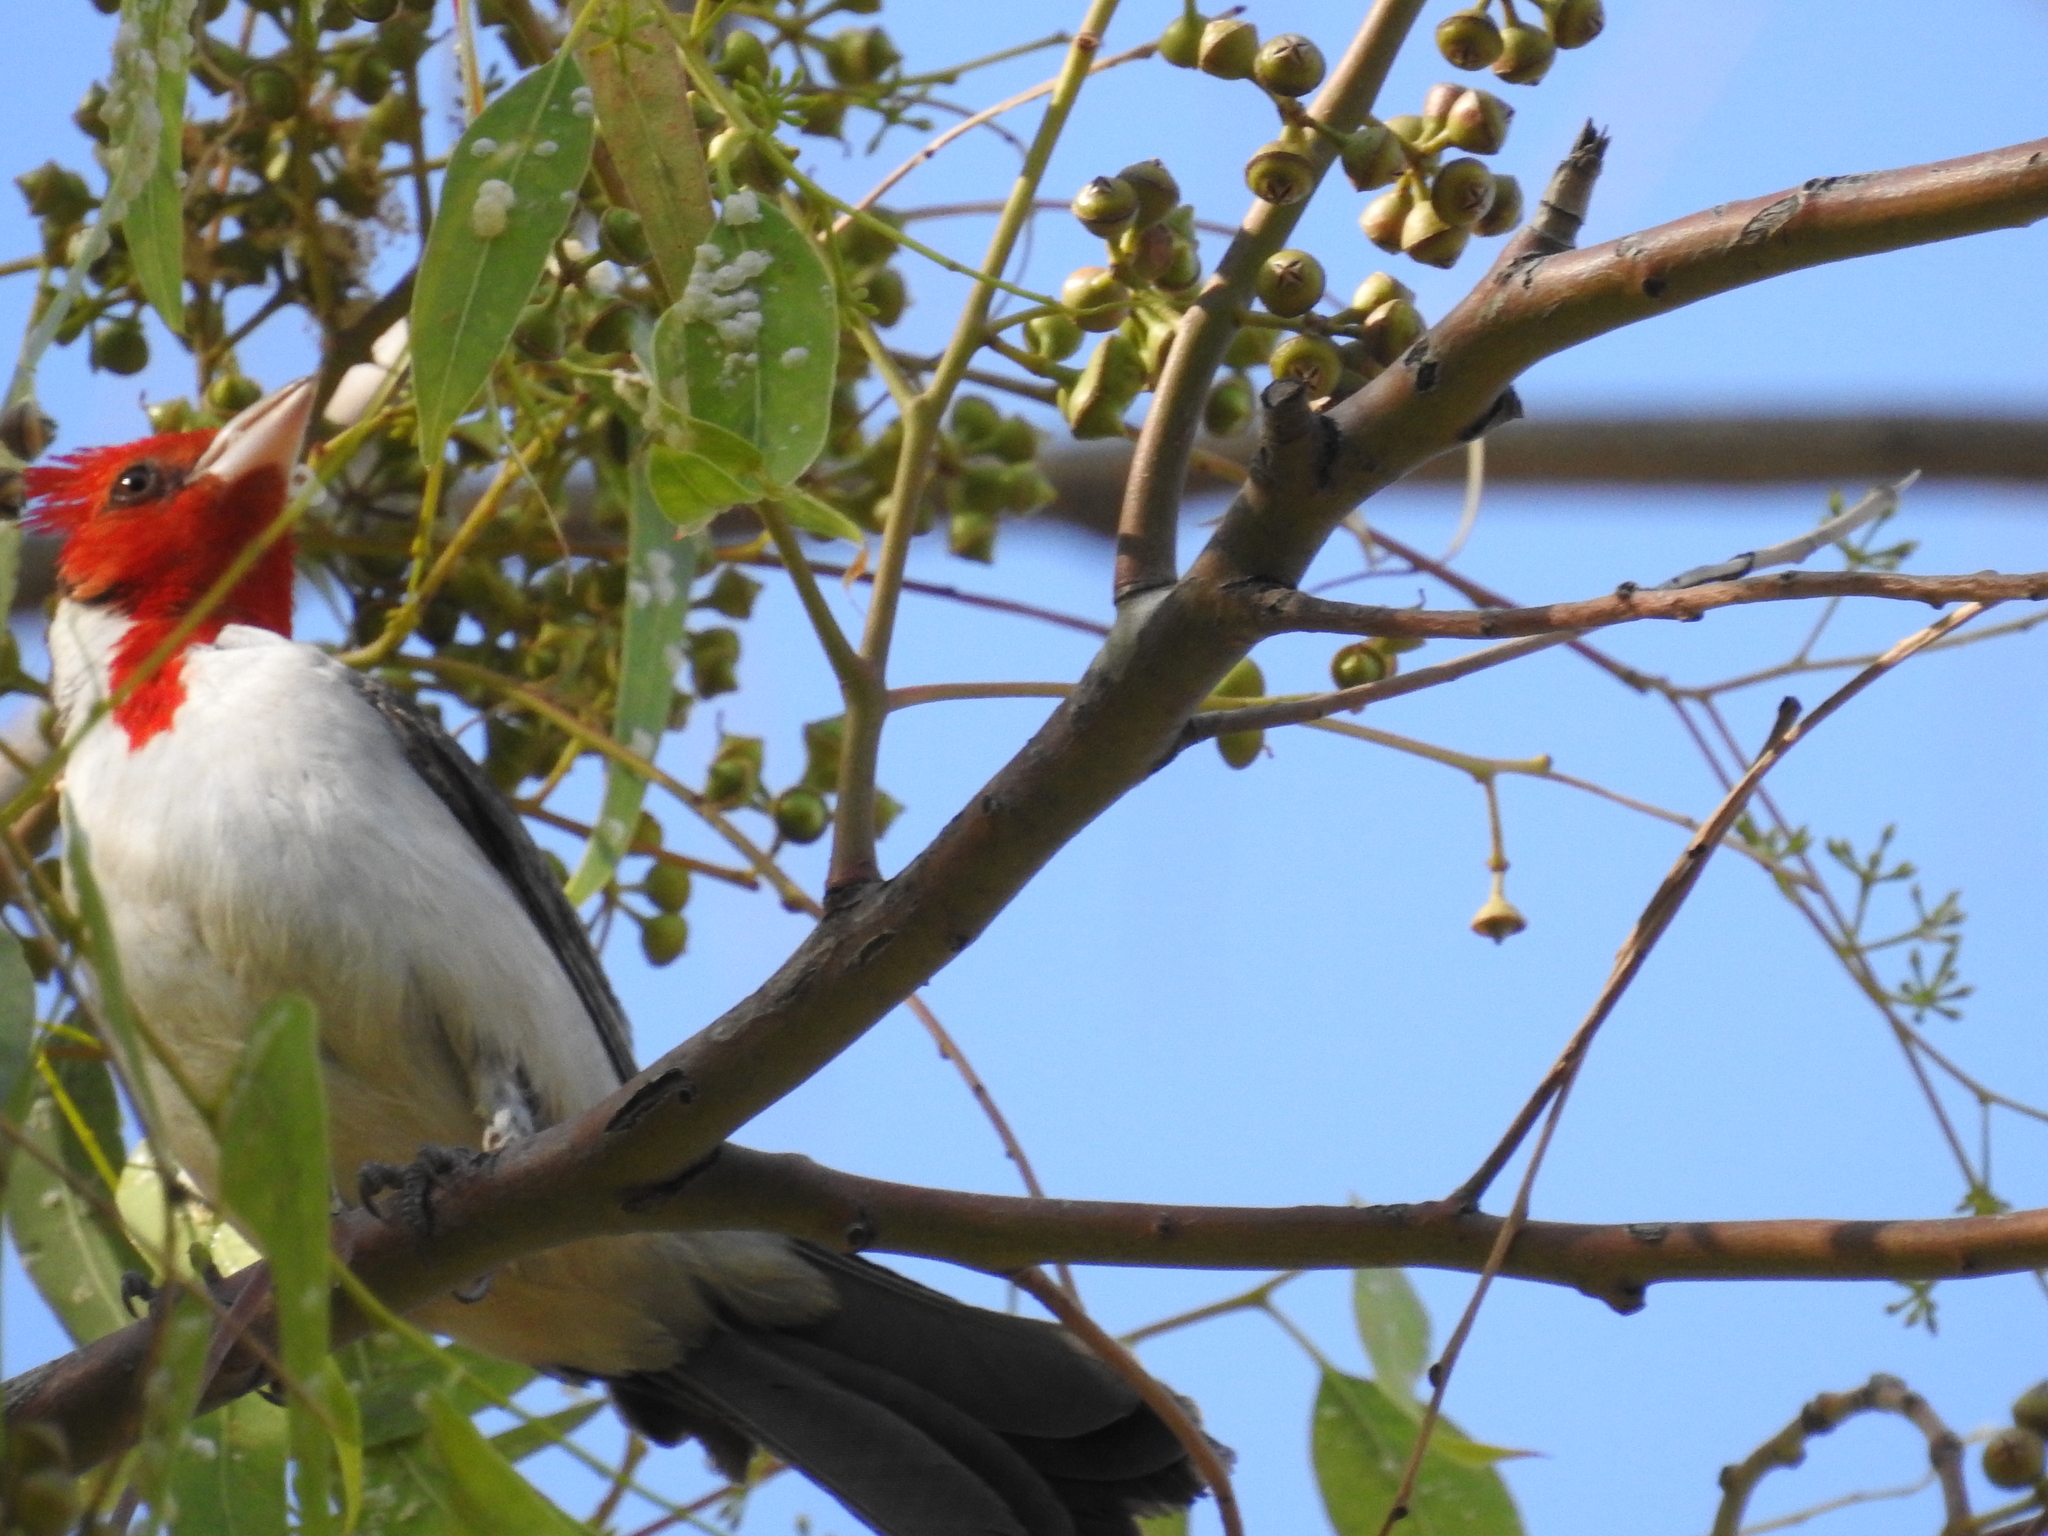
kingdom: Animalia
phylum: Chordata
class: Aves
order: Passeriformes
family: Thraupidae
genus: Paroaria
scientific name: Paroaria coronata
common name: Red-crested cardinal
